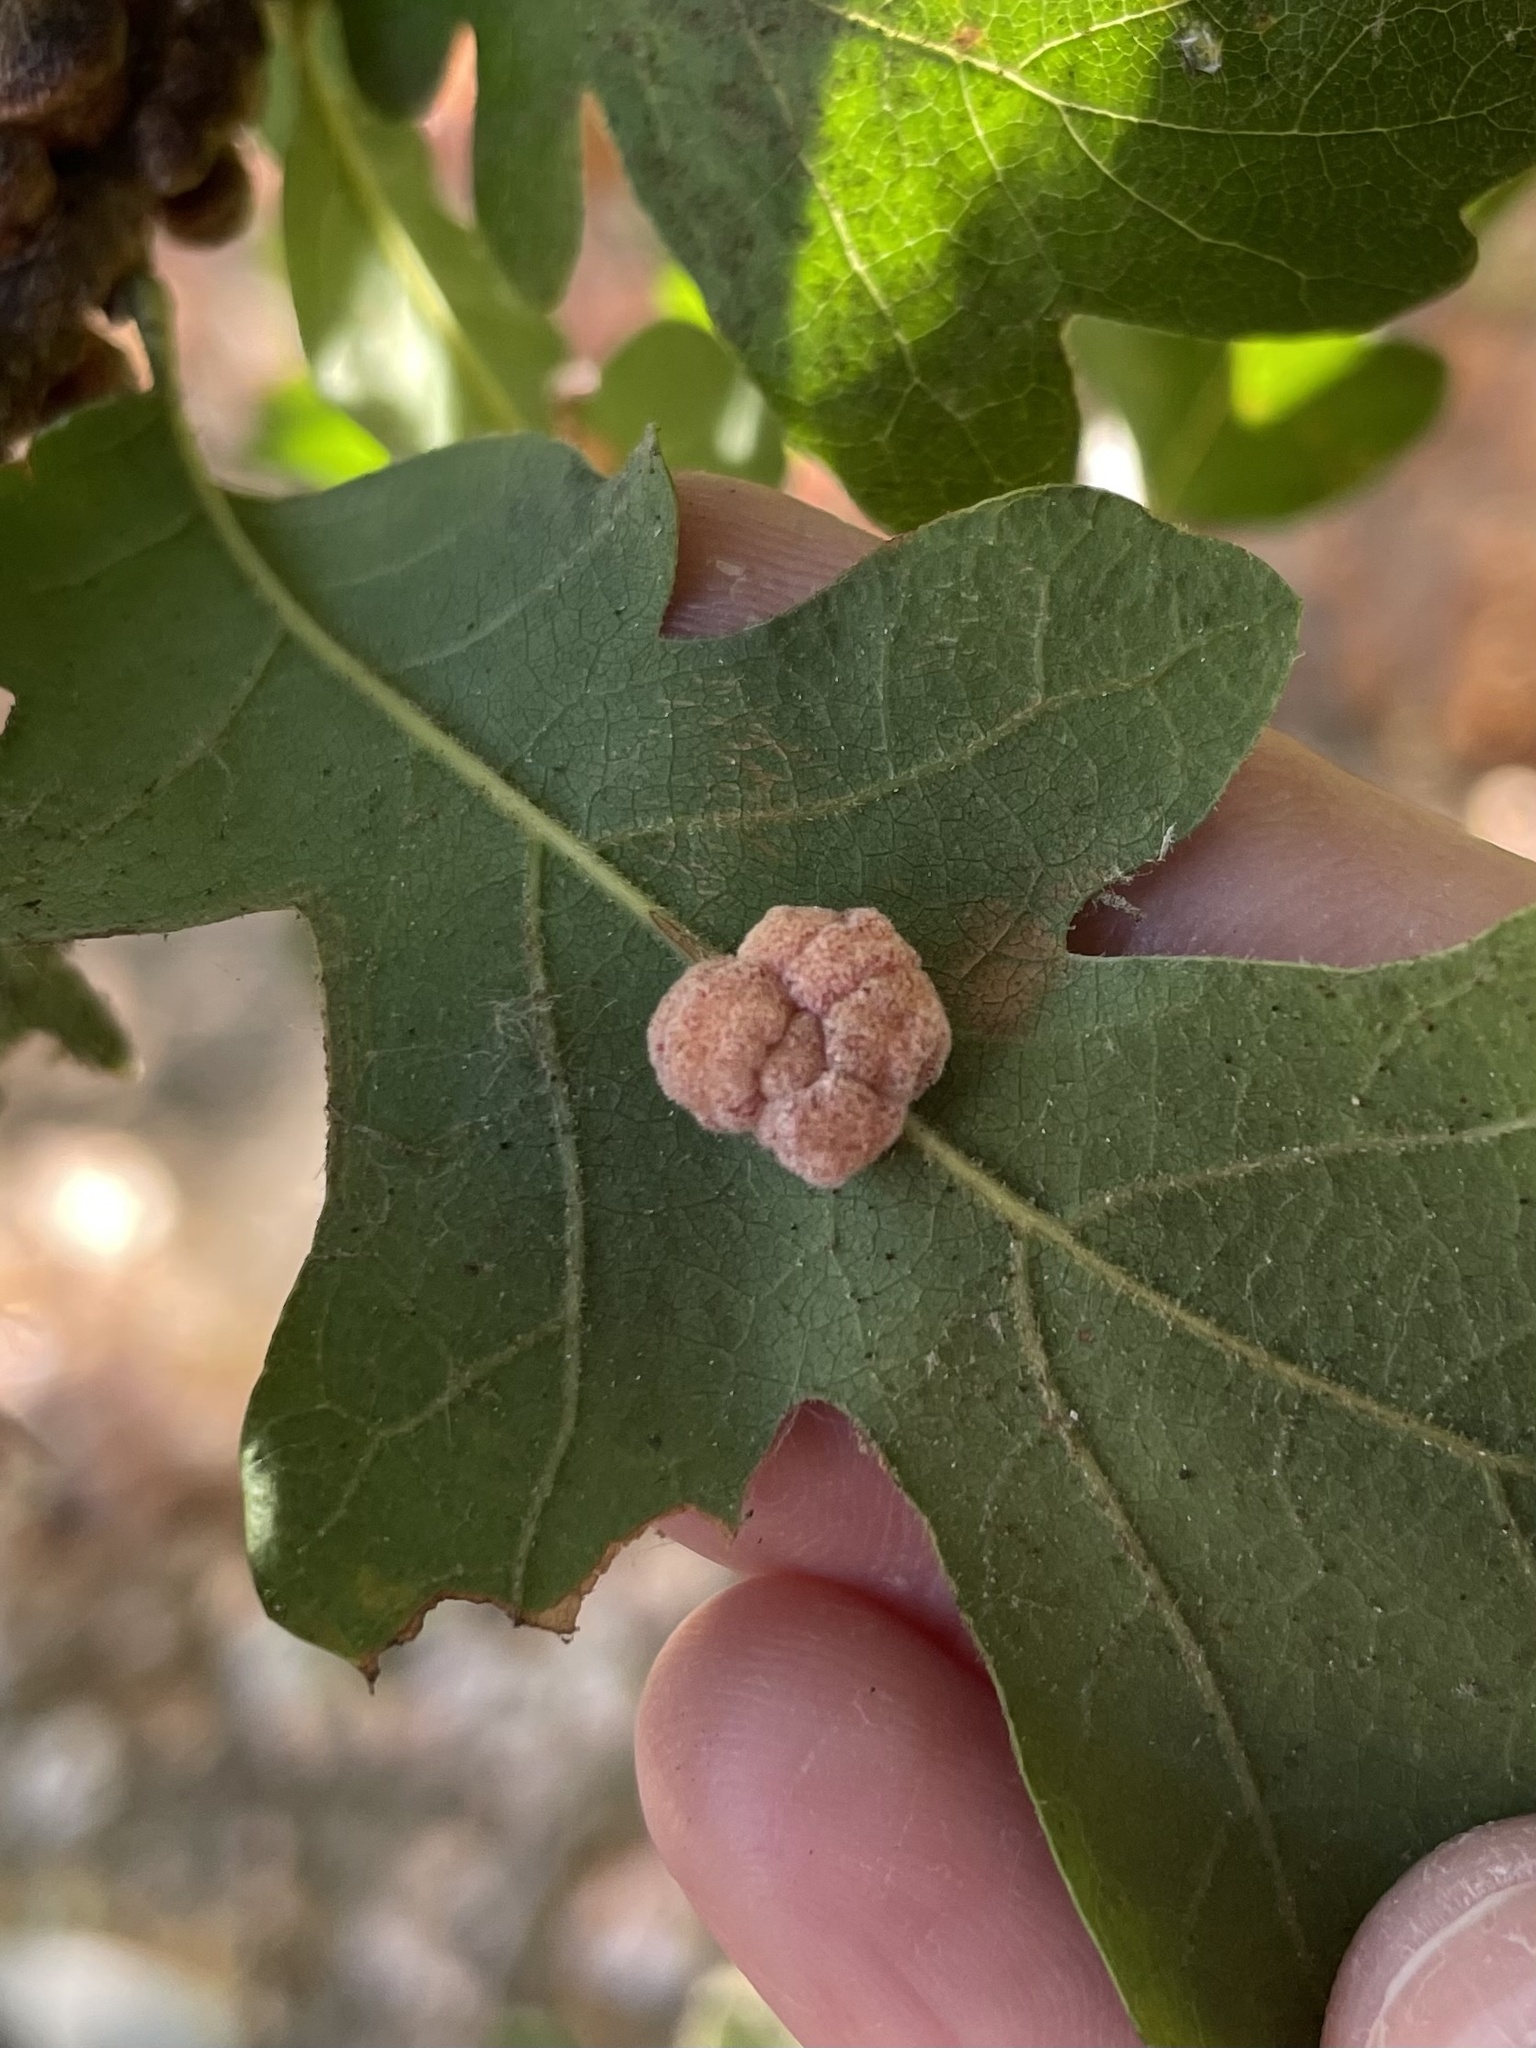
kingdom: Animalia
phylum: Arthropoda
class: Insecta
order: Hymenoptera
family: Cynipidae
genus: Andricus
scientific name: Andricus
